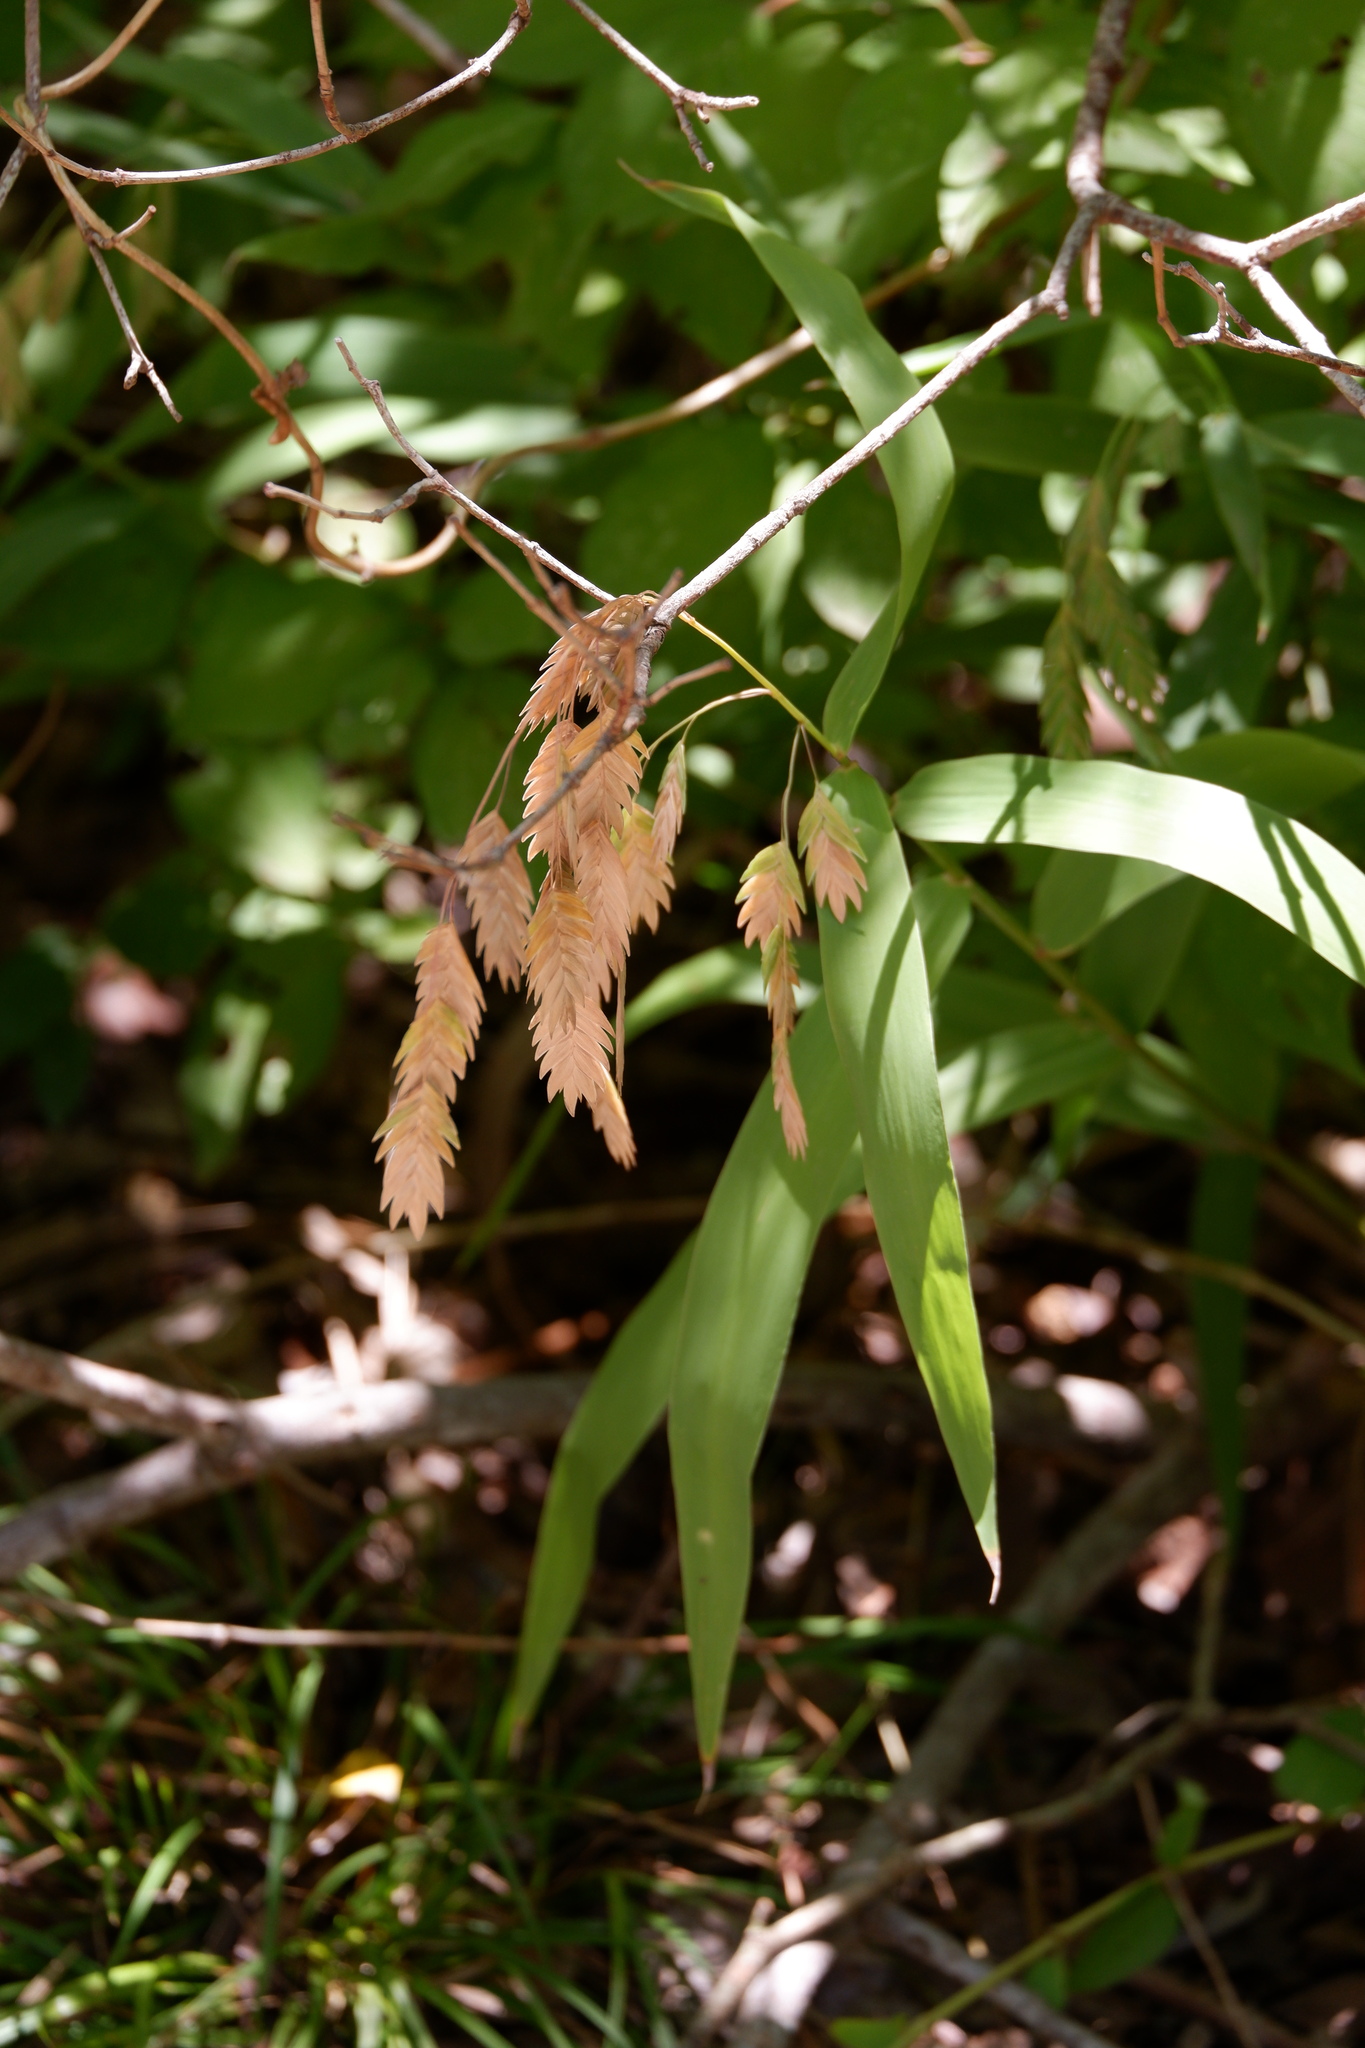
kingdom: Plantae
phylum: Tracheophyta
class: Liliopsida
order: Poales
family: Poaceae
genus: Chasmanthium
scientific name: Chasmanthium latifolium
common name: Broad-leaved chasmanthium
